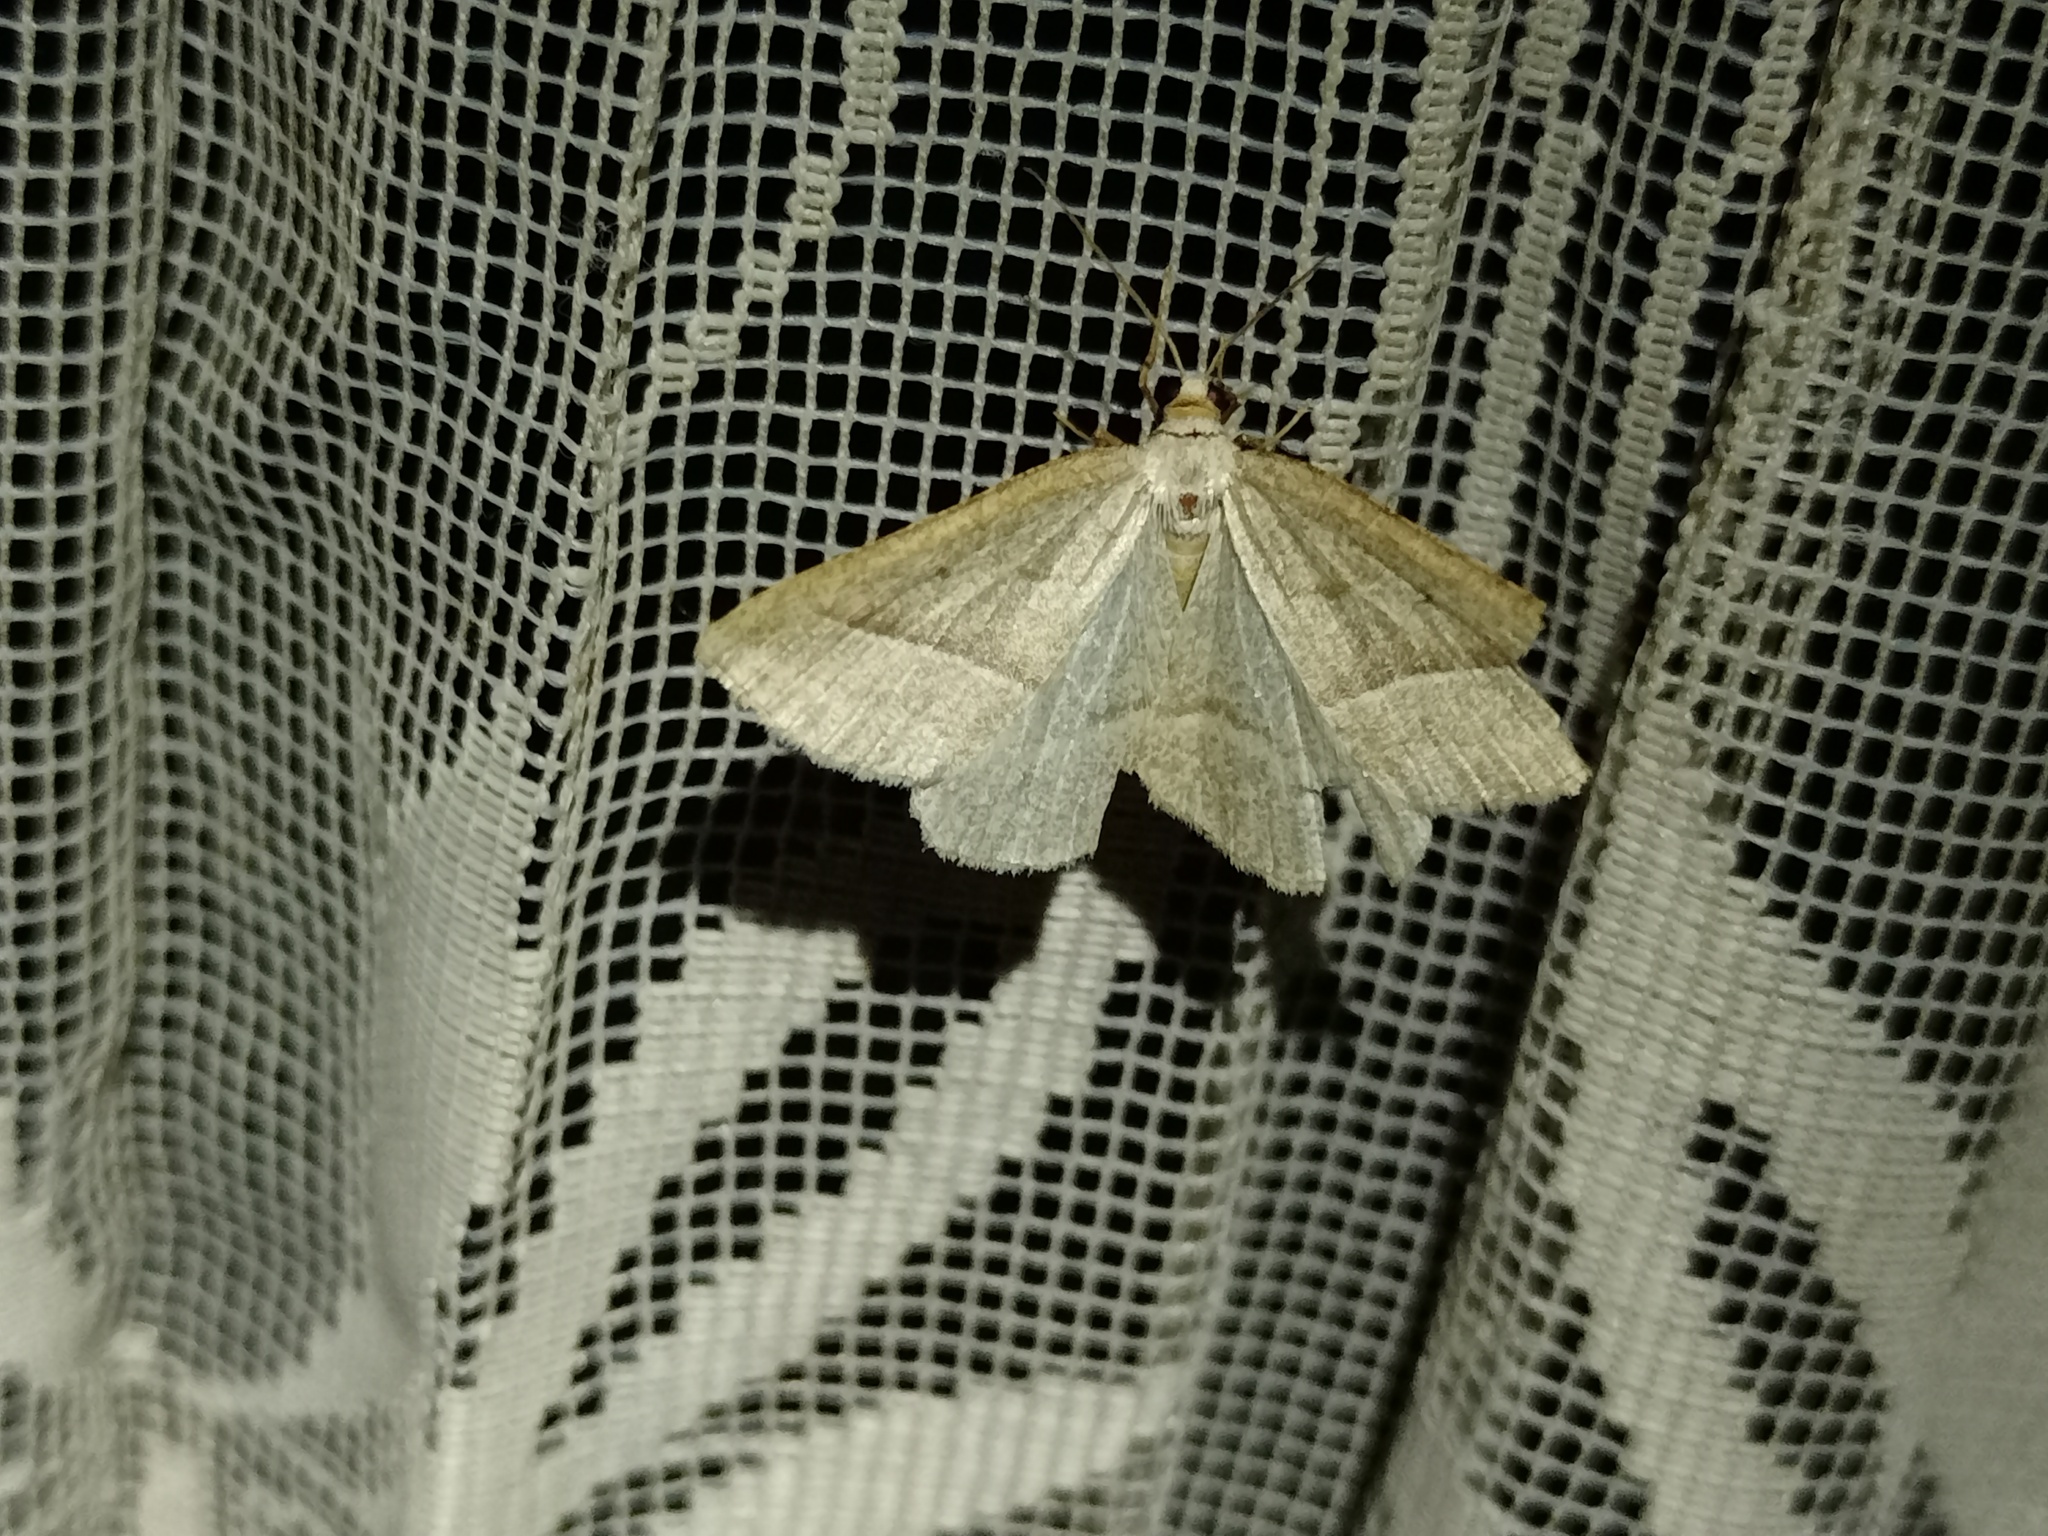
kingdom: Animalia
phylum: Arthropoda
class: Insecta
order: Lepidoptera
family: Pterophoridae
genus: Pterophorus
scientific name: Pterophorus Petrophora chlorosata
